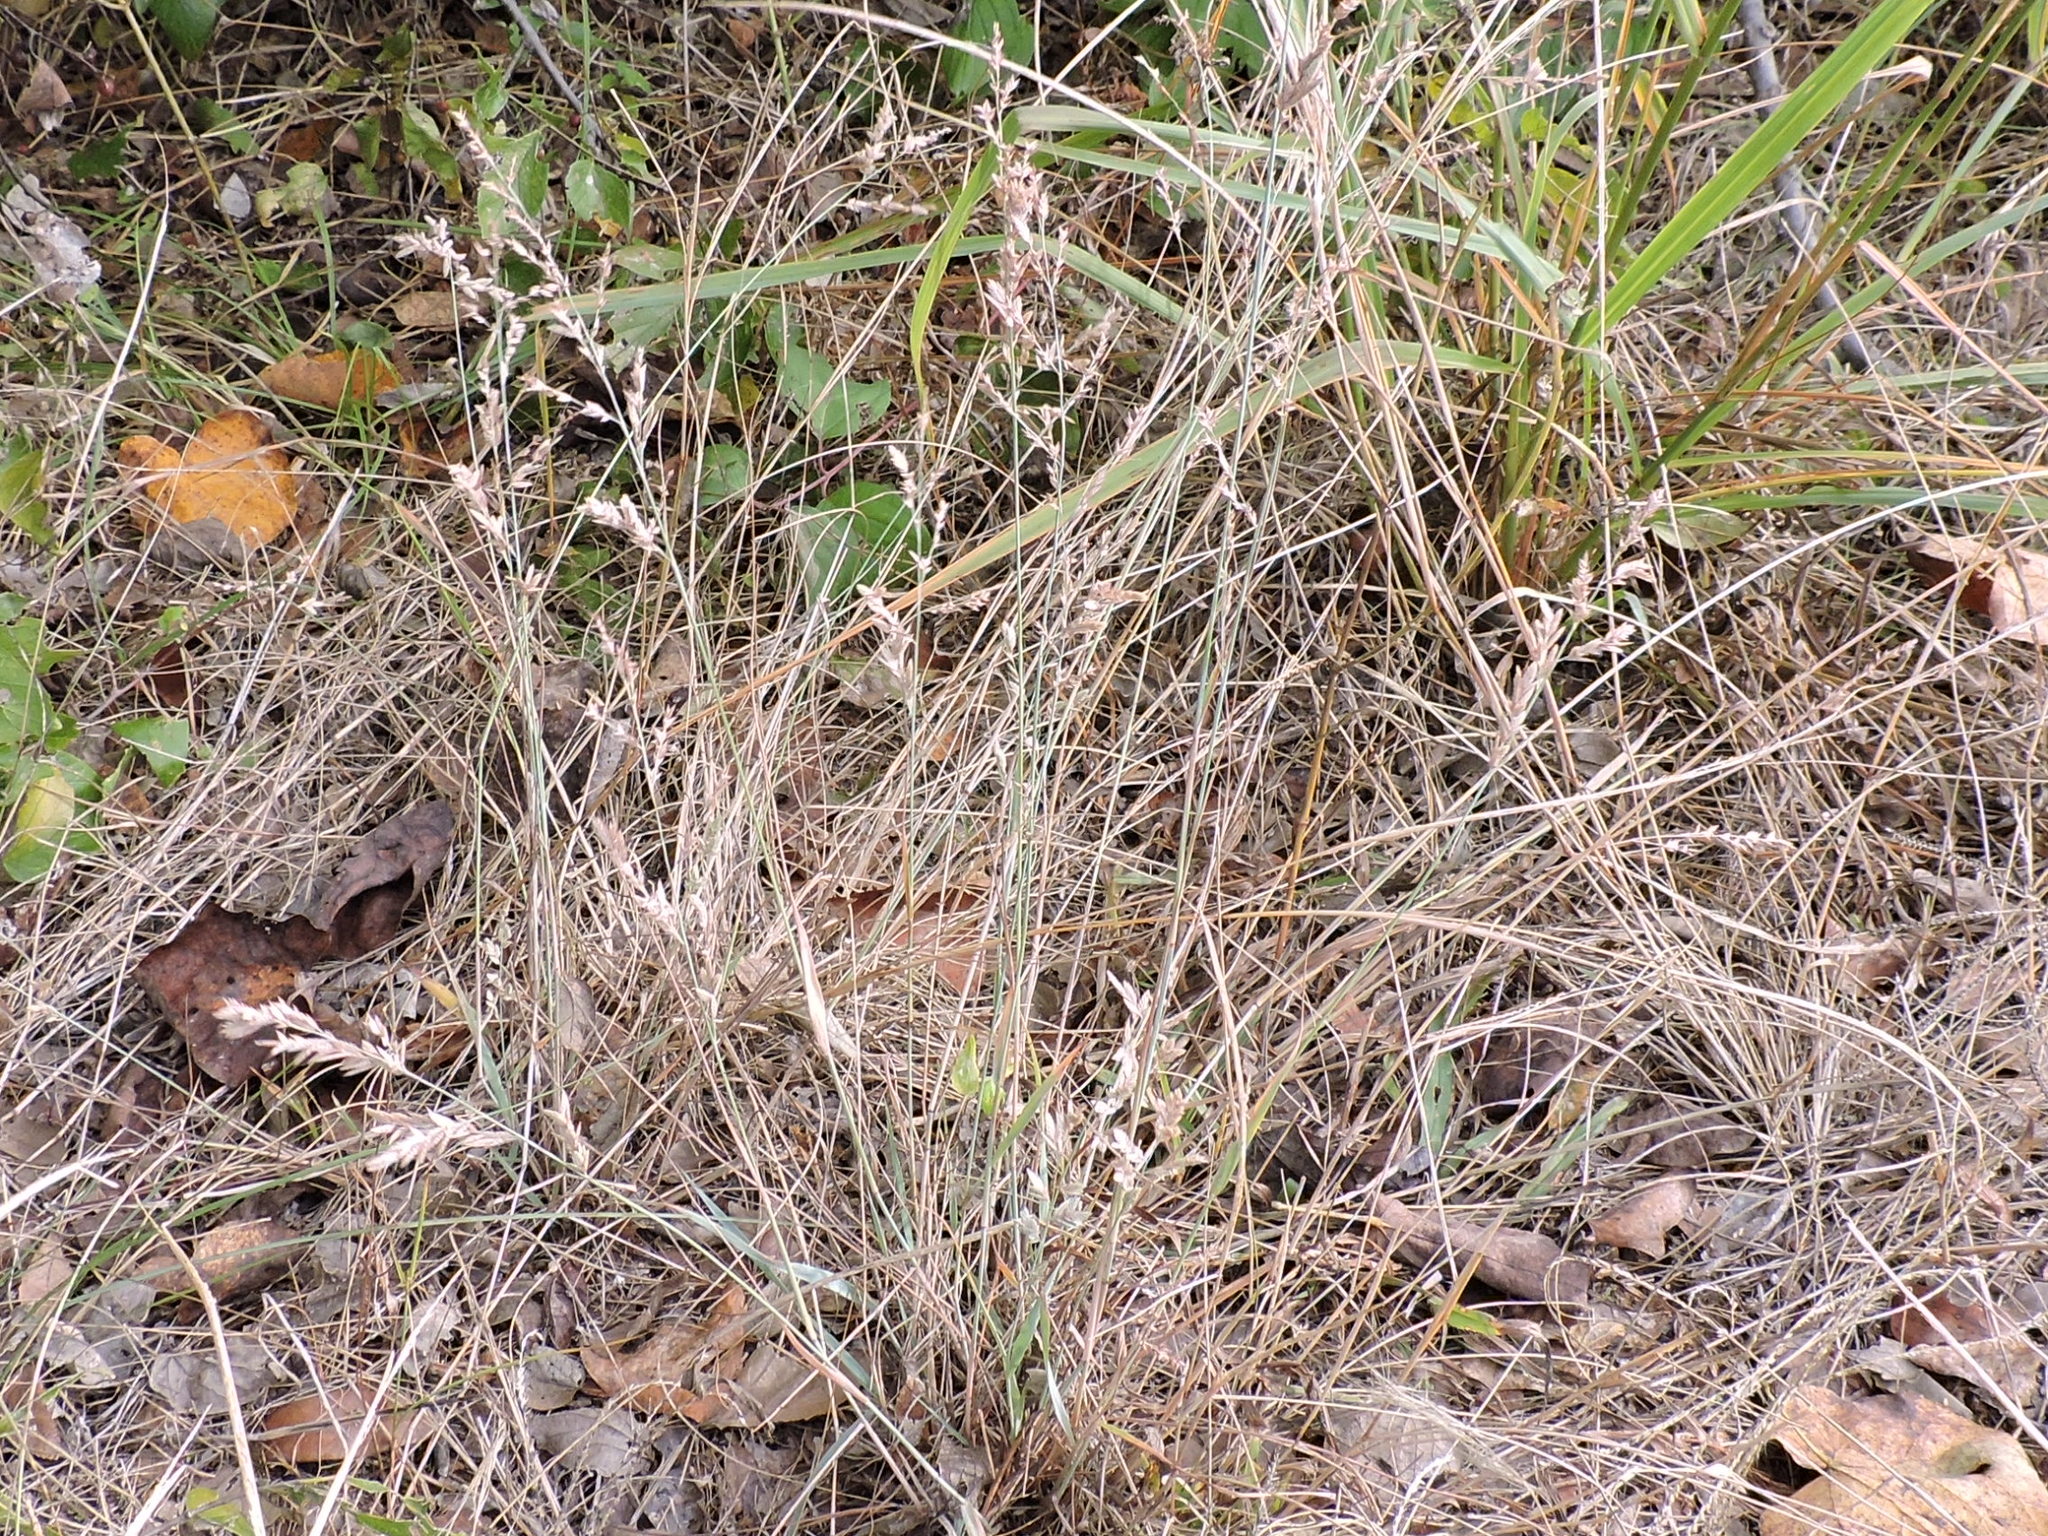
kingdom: Plantae
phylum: Tracheophyta
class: Liliopsida
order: Poales
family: Poaceae
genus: Eragrostis
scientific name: Eragrostis secundiflora
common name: Red love grass
